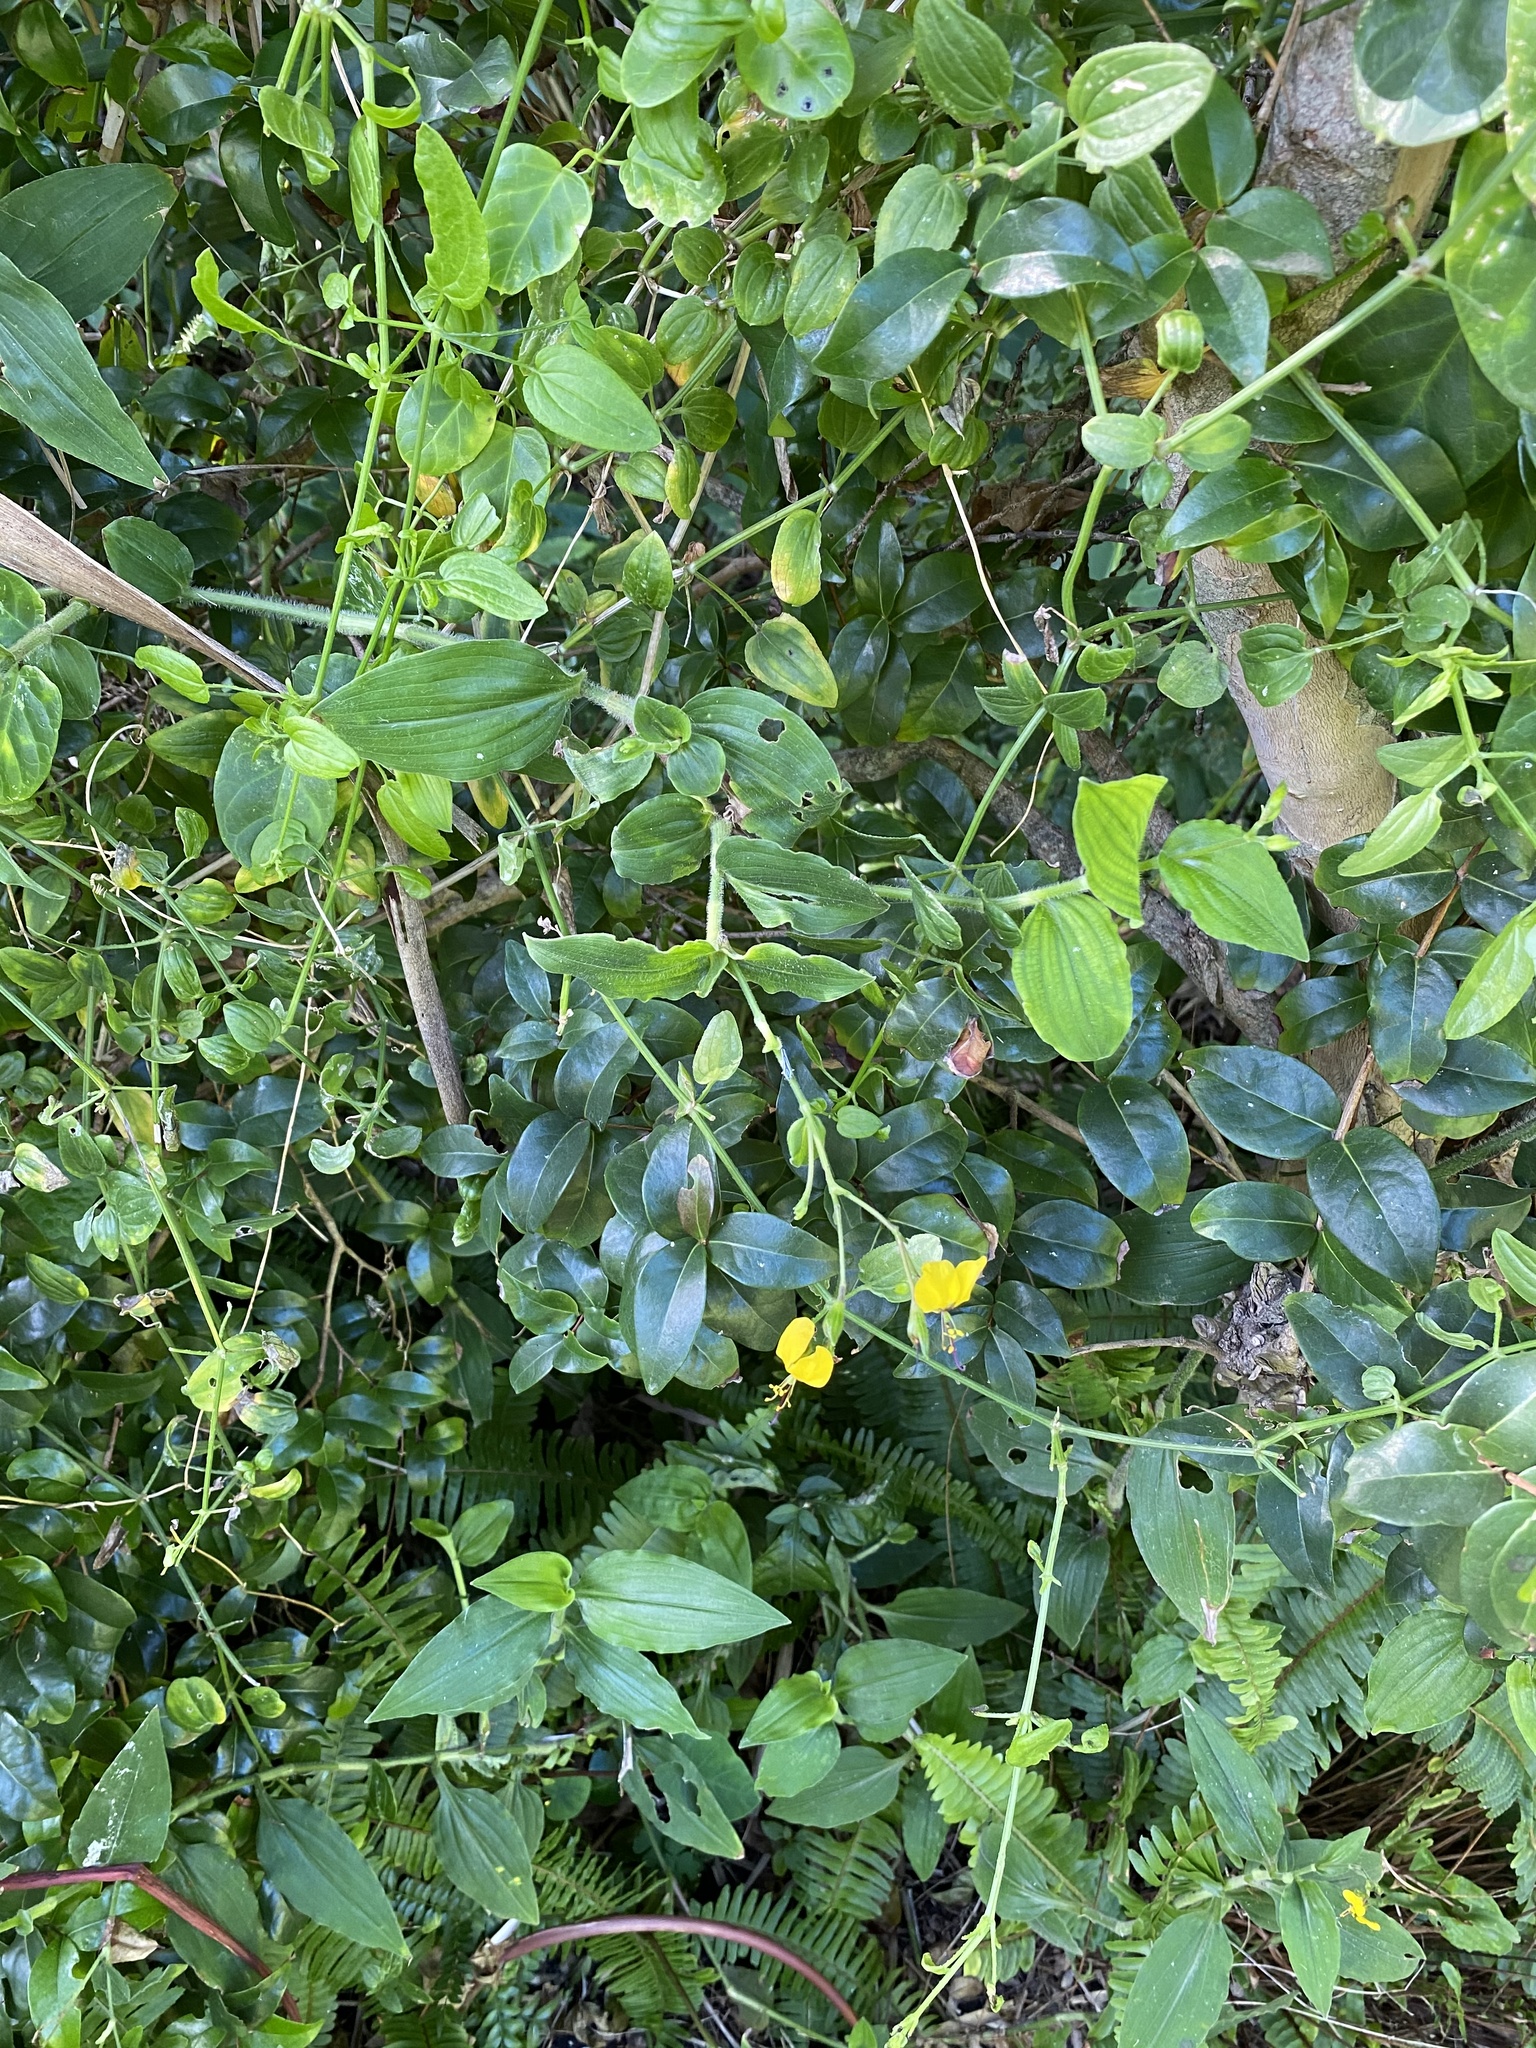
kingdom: Plantae
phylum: Tracheophyta
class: Liliopsida
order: Commelinales
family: Commelinaceae
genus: Aneilema
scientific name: Aneilema aequinoctiale
